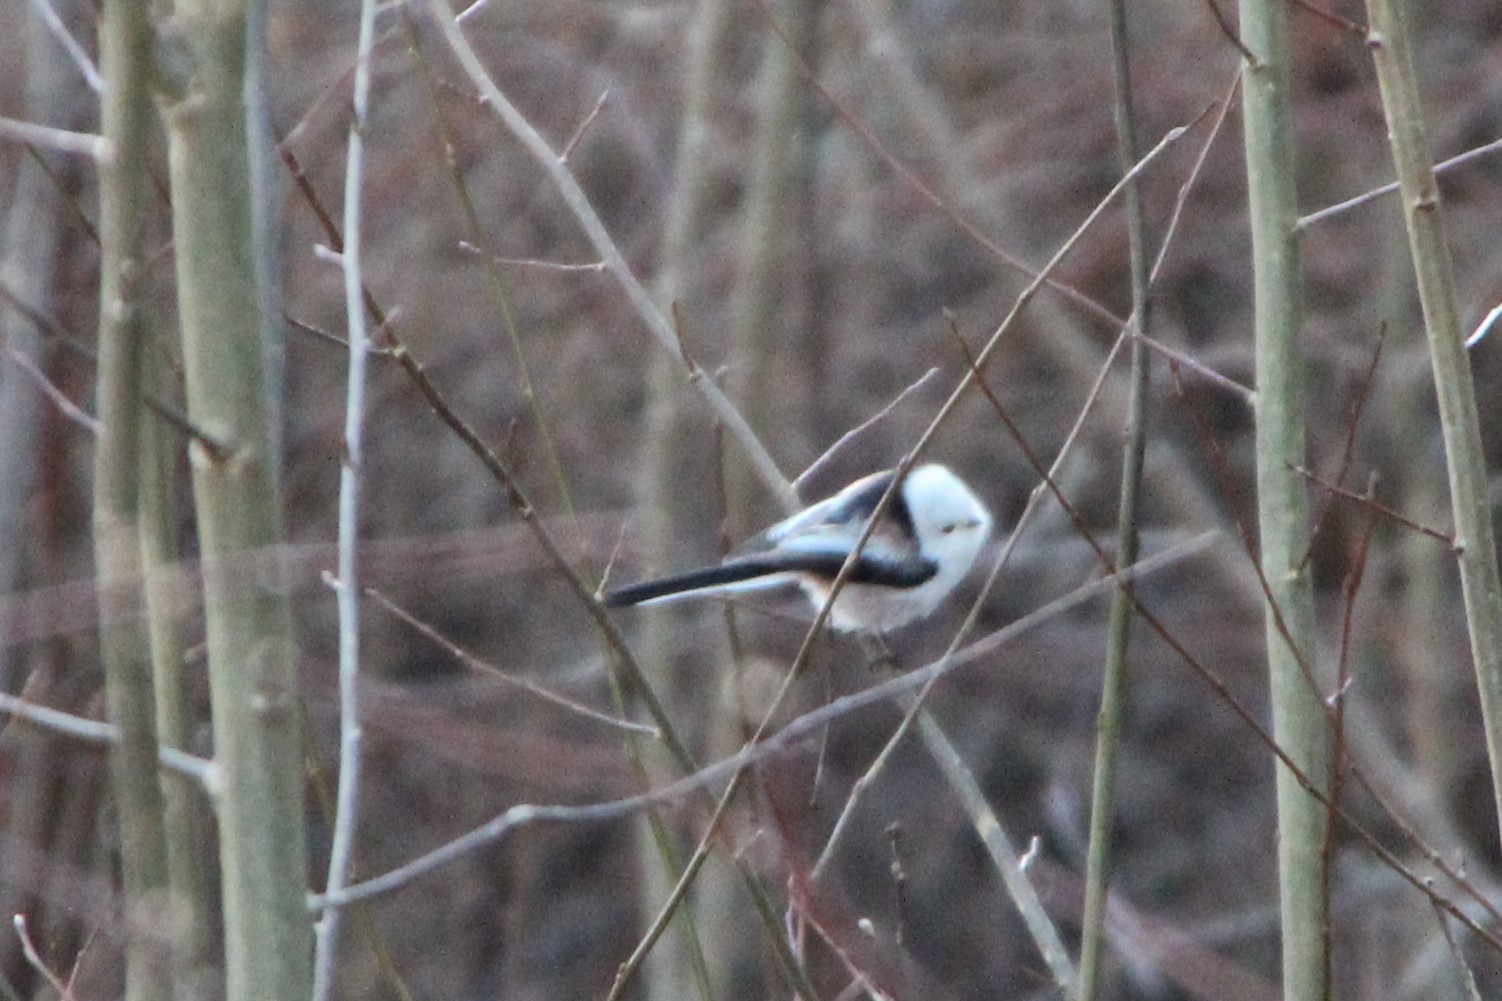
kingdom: Animalia
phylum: Chordata
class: Aves
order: Passeriformes
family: Aegithalidae
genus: Aegithalos
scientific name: Aegithalos caudatus
